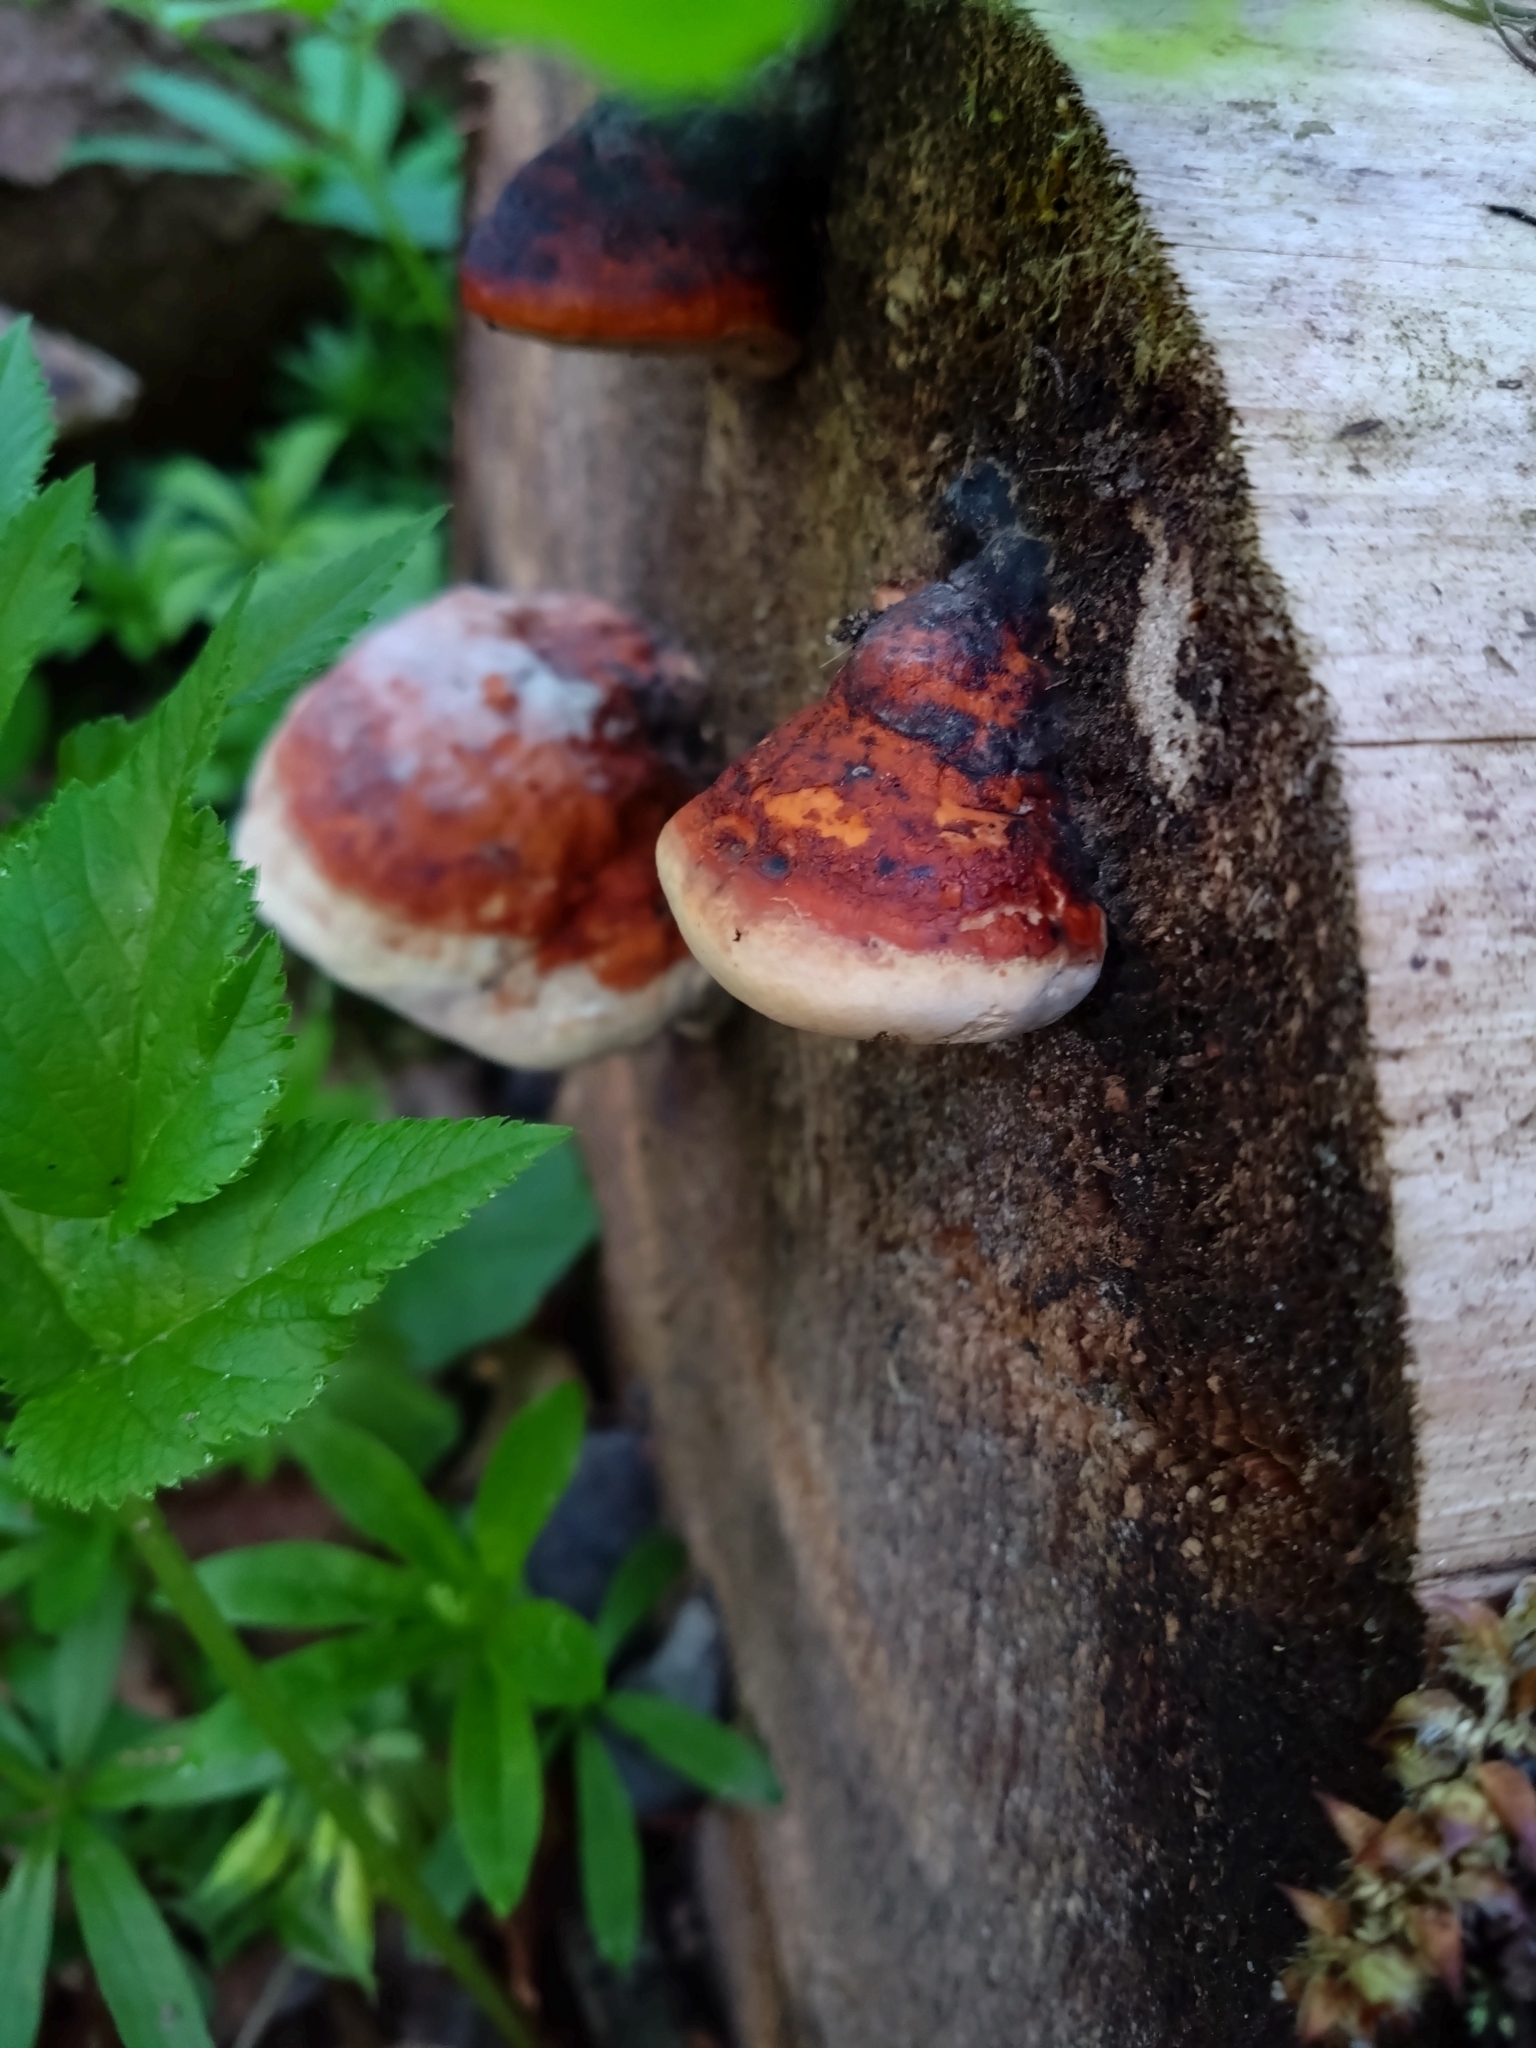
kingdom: Fungi
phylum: Basidiomycota
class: Agaricomycetes
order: Polyporales
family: Fomitopsidaceae
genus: Fomitopsis
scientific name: Fomitopsis pinicola
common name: Red-belted bracket
